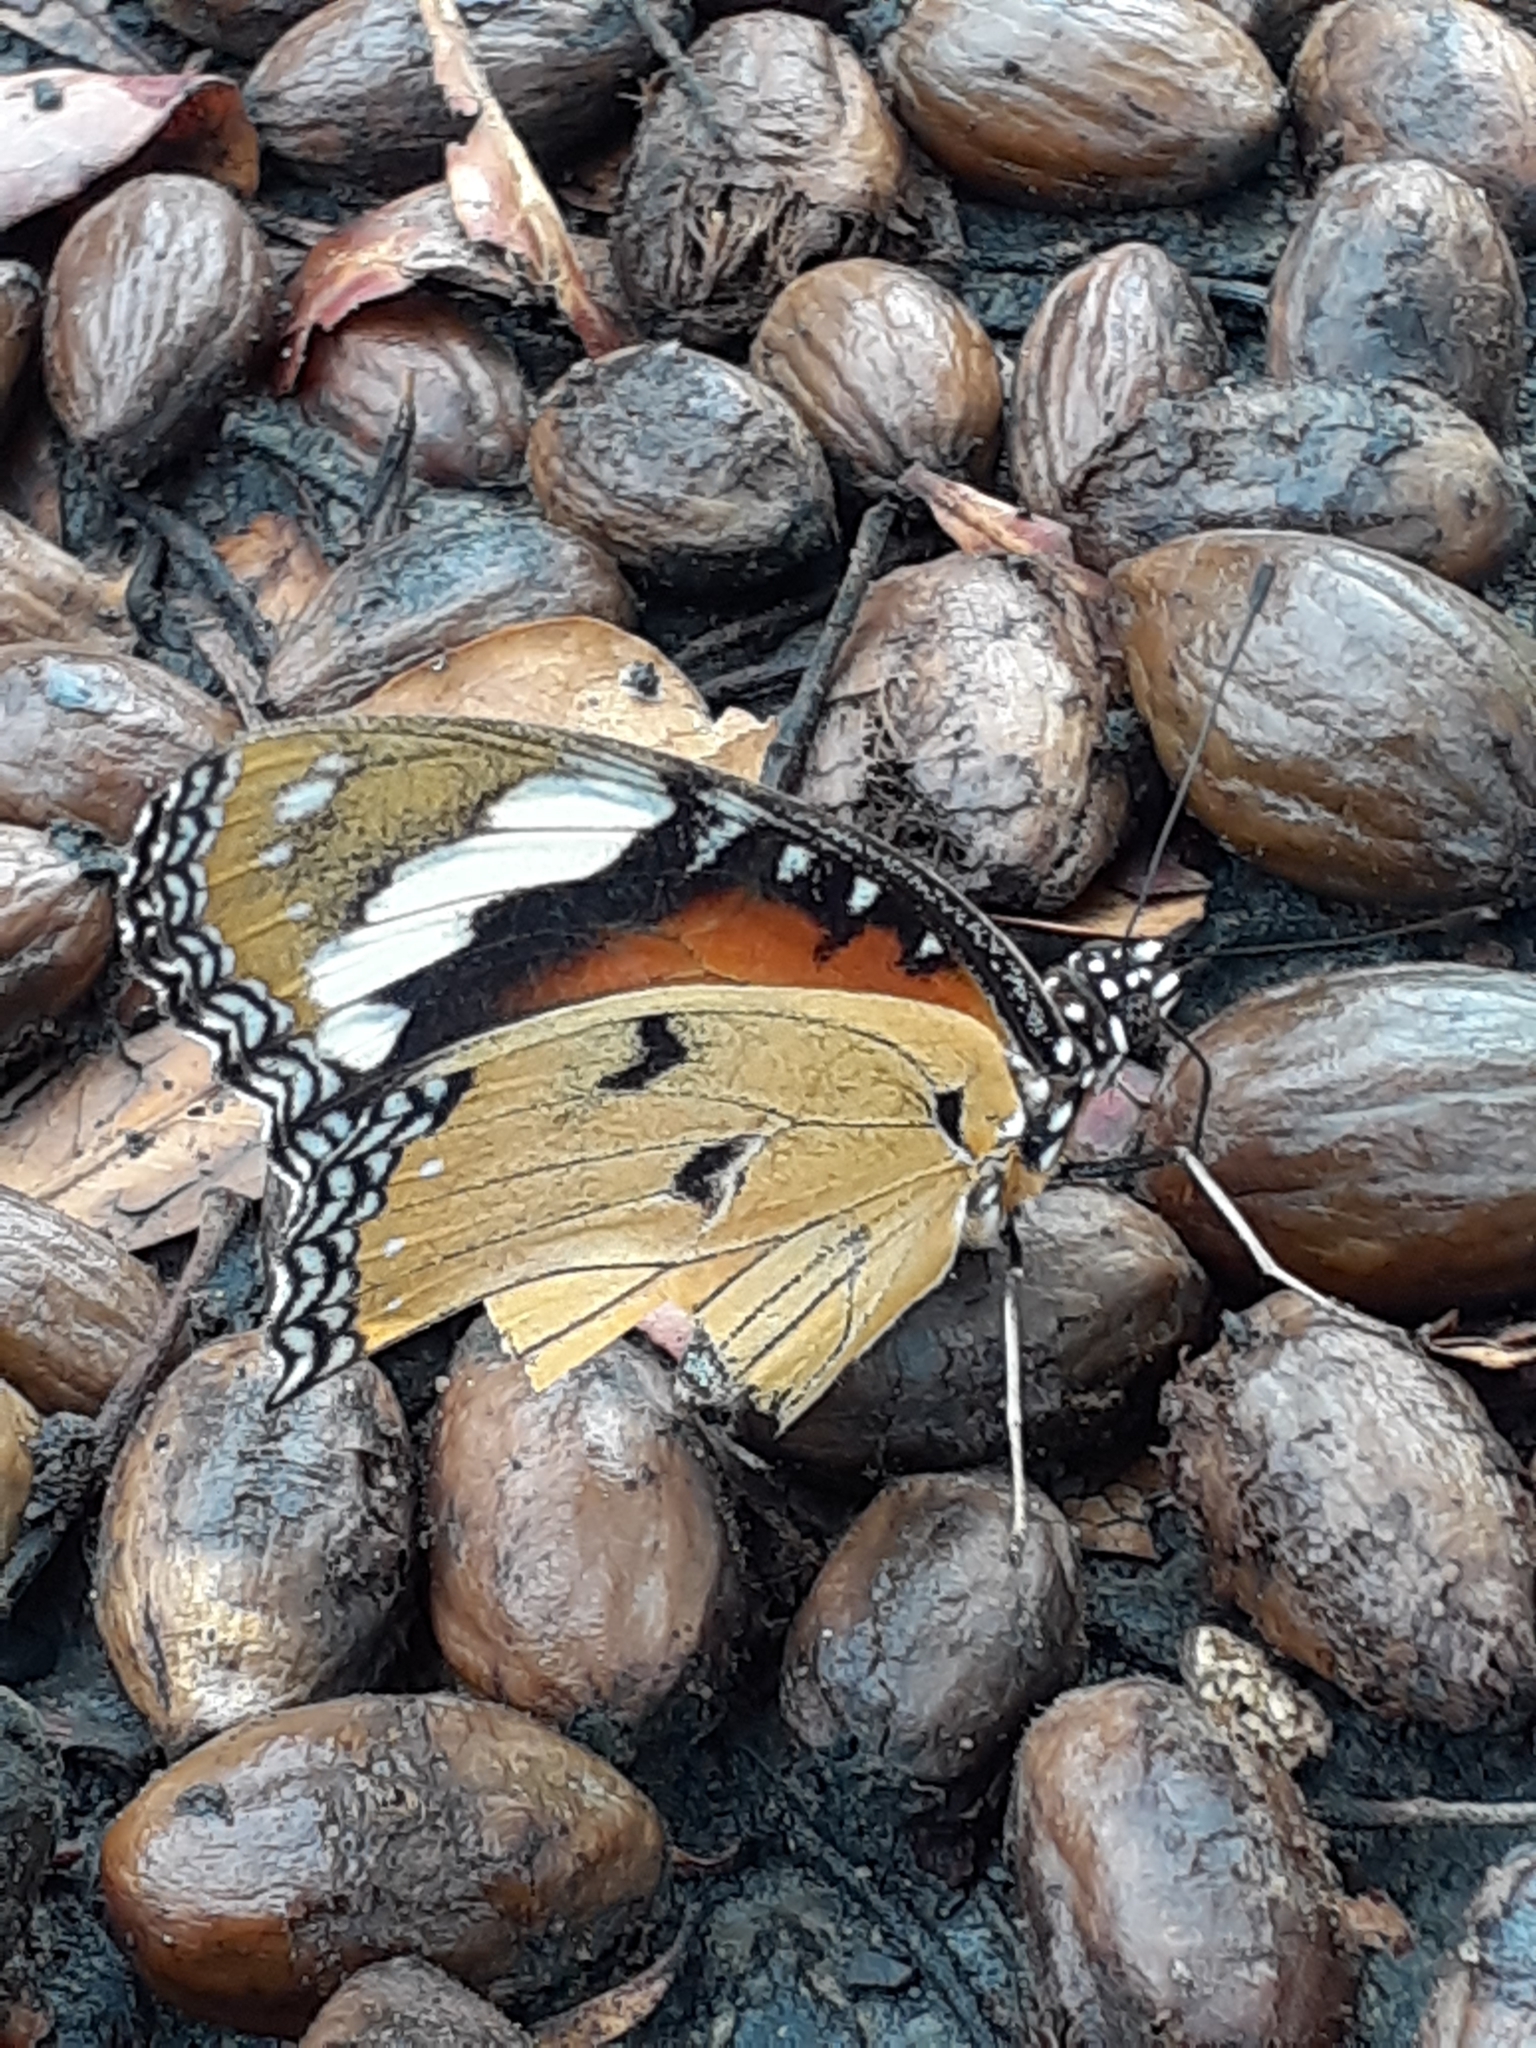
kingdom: Animalia
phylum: Arthropoda
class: Insecta
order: Lepidoptera
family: Nymphalidae
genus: Hypolimnas
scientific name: Hypolimnas misippus
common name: False plain tiger
